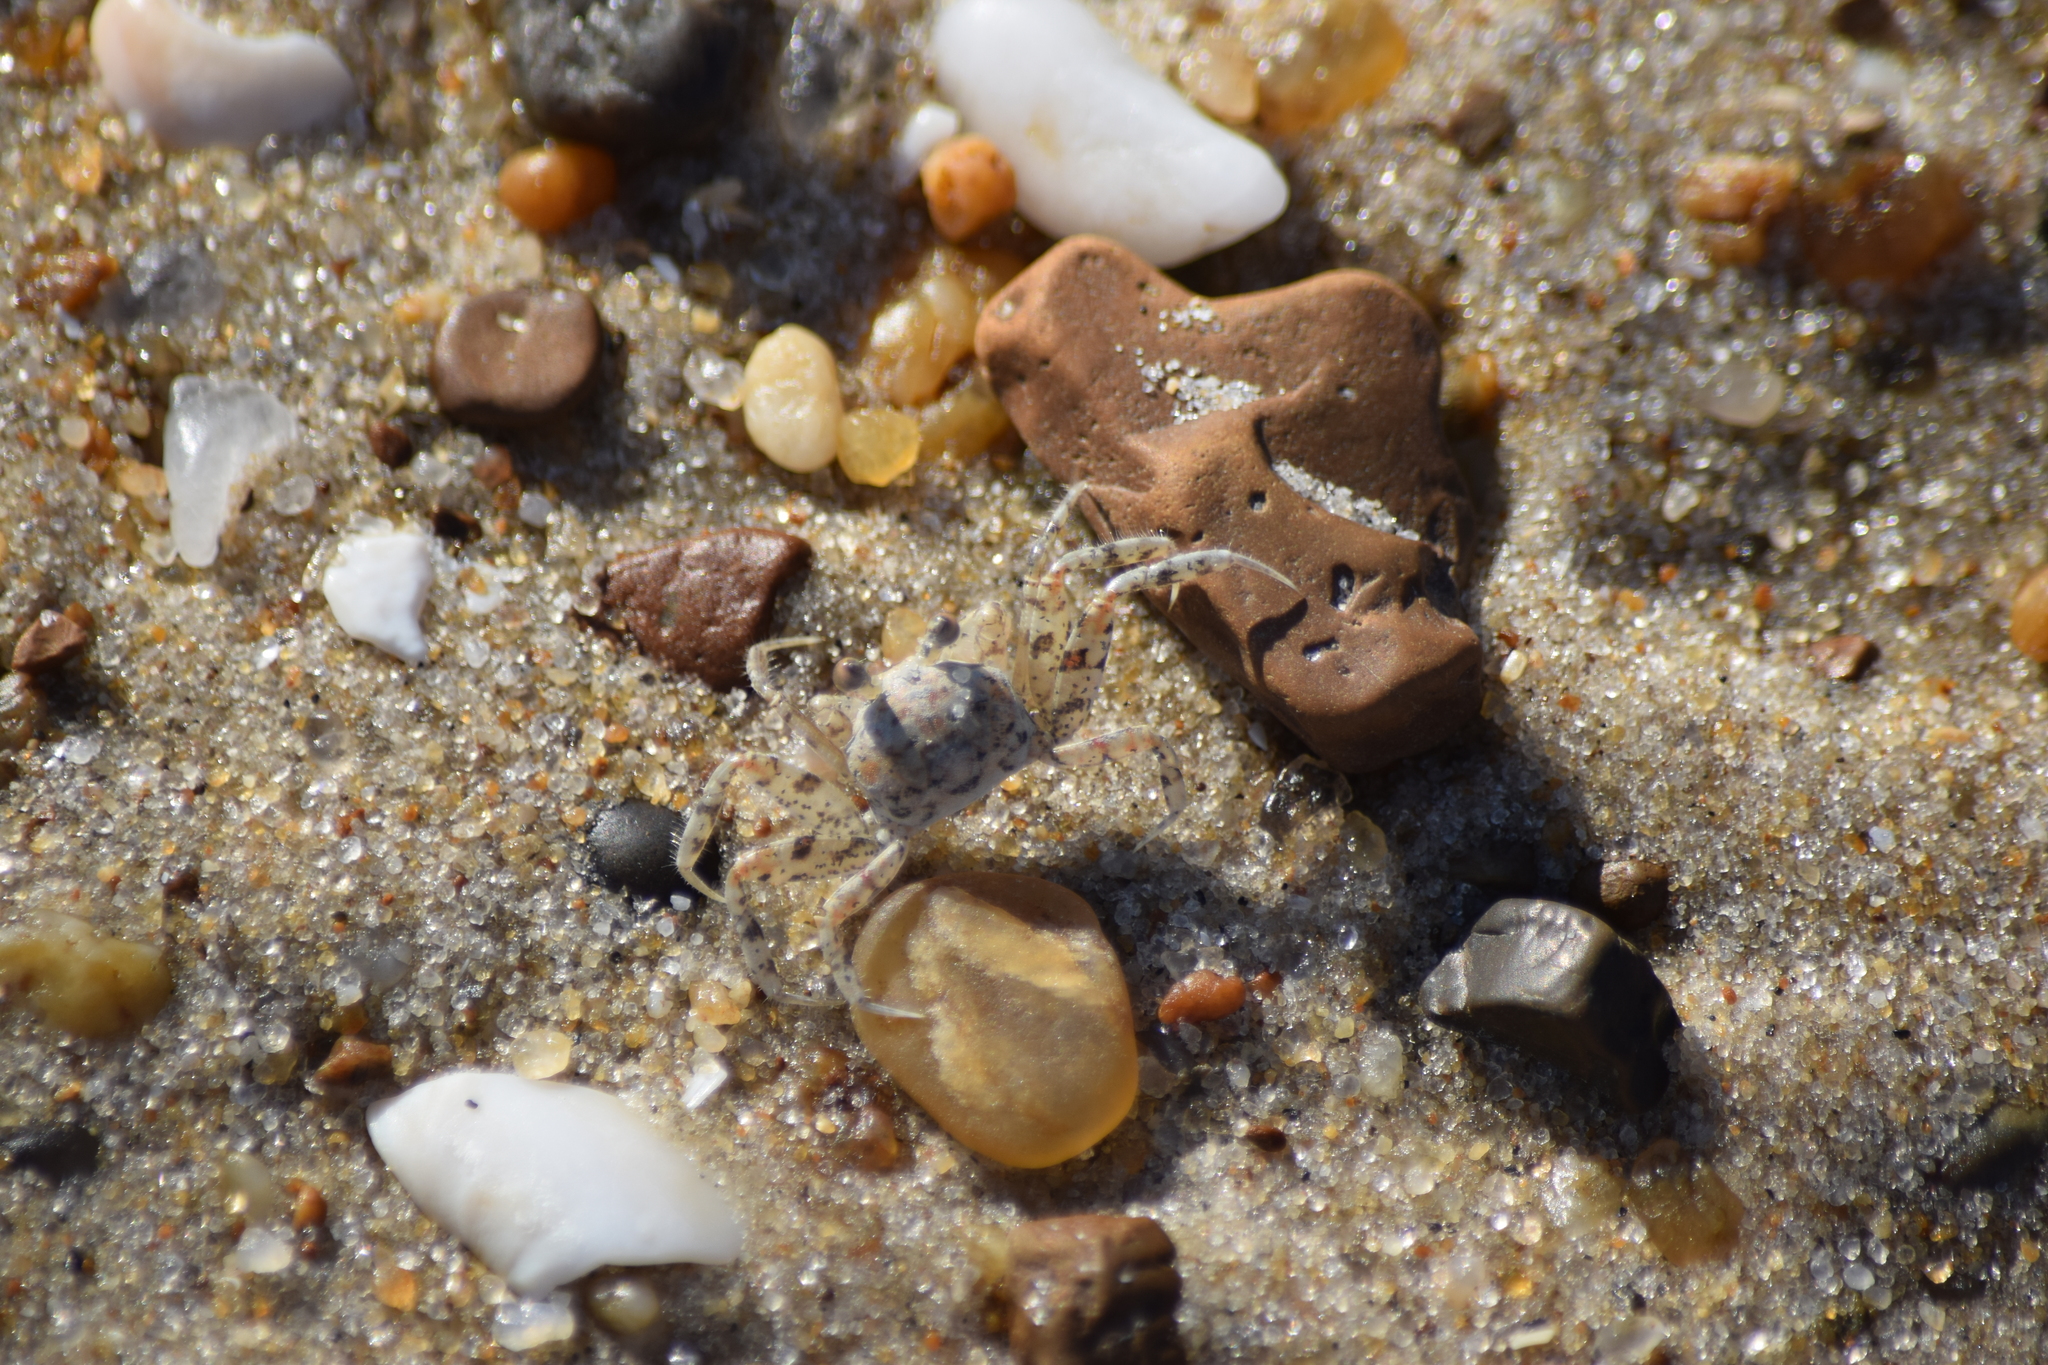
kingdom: Animalia
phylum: Arthropoda
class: Malacostraca
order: Decapoda
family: Ocypodidae
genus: Ocypode
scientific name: Ocypode quadrata
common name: Ghost crab
